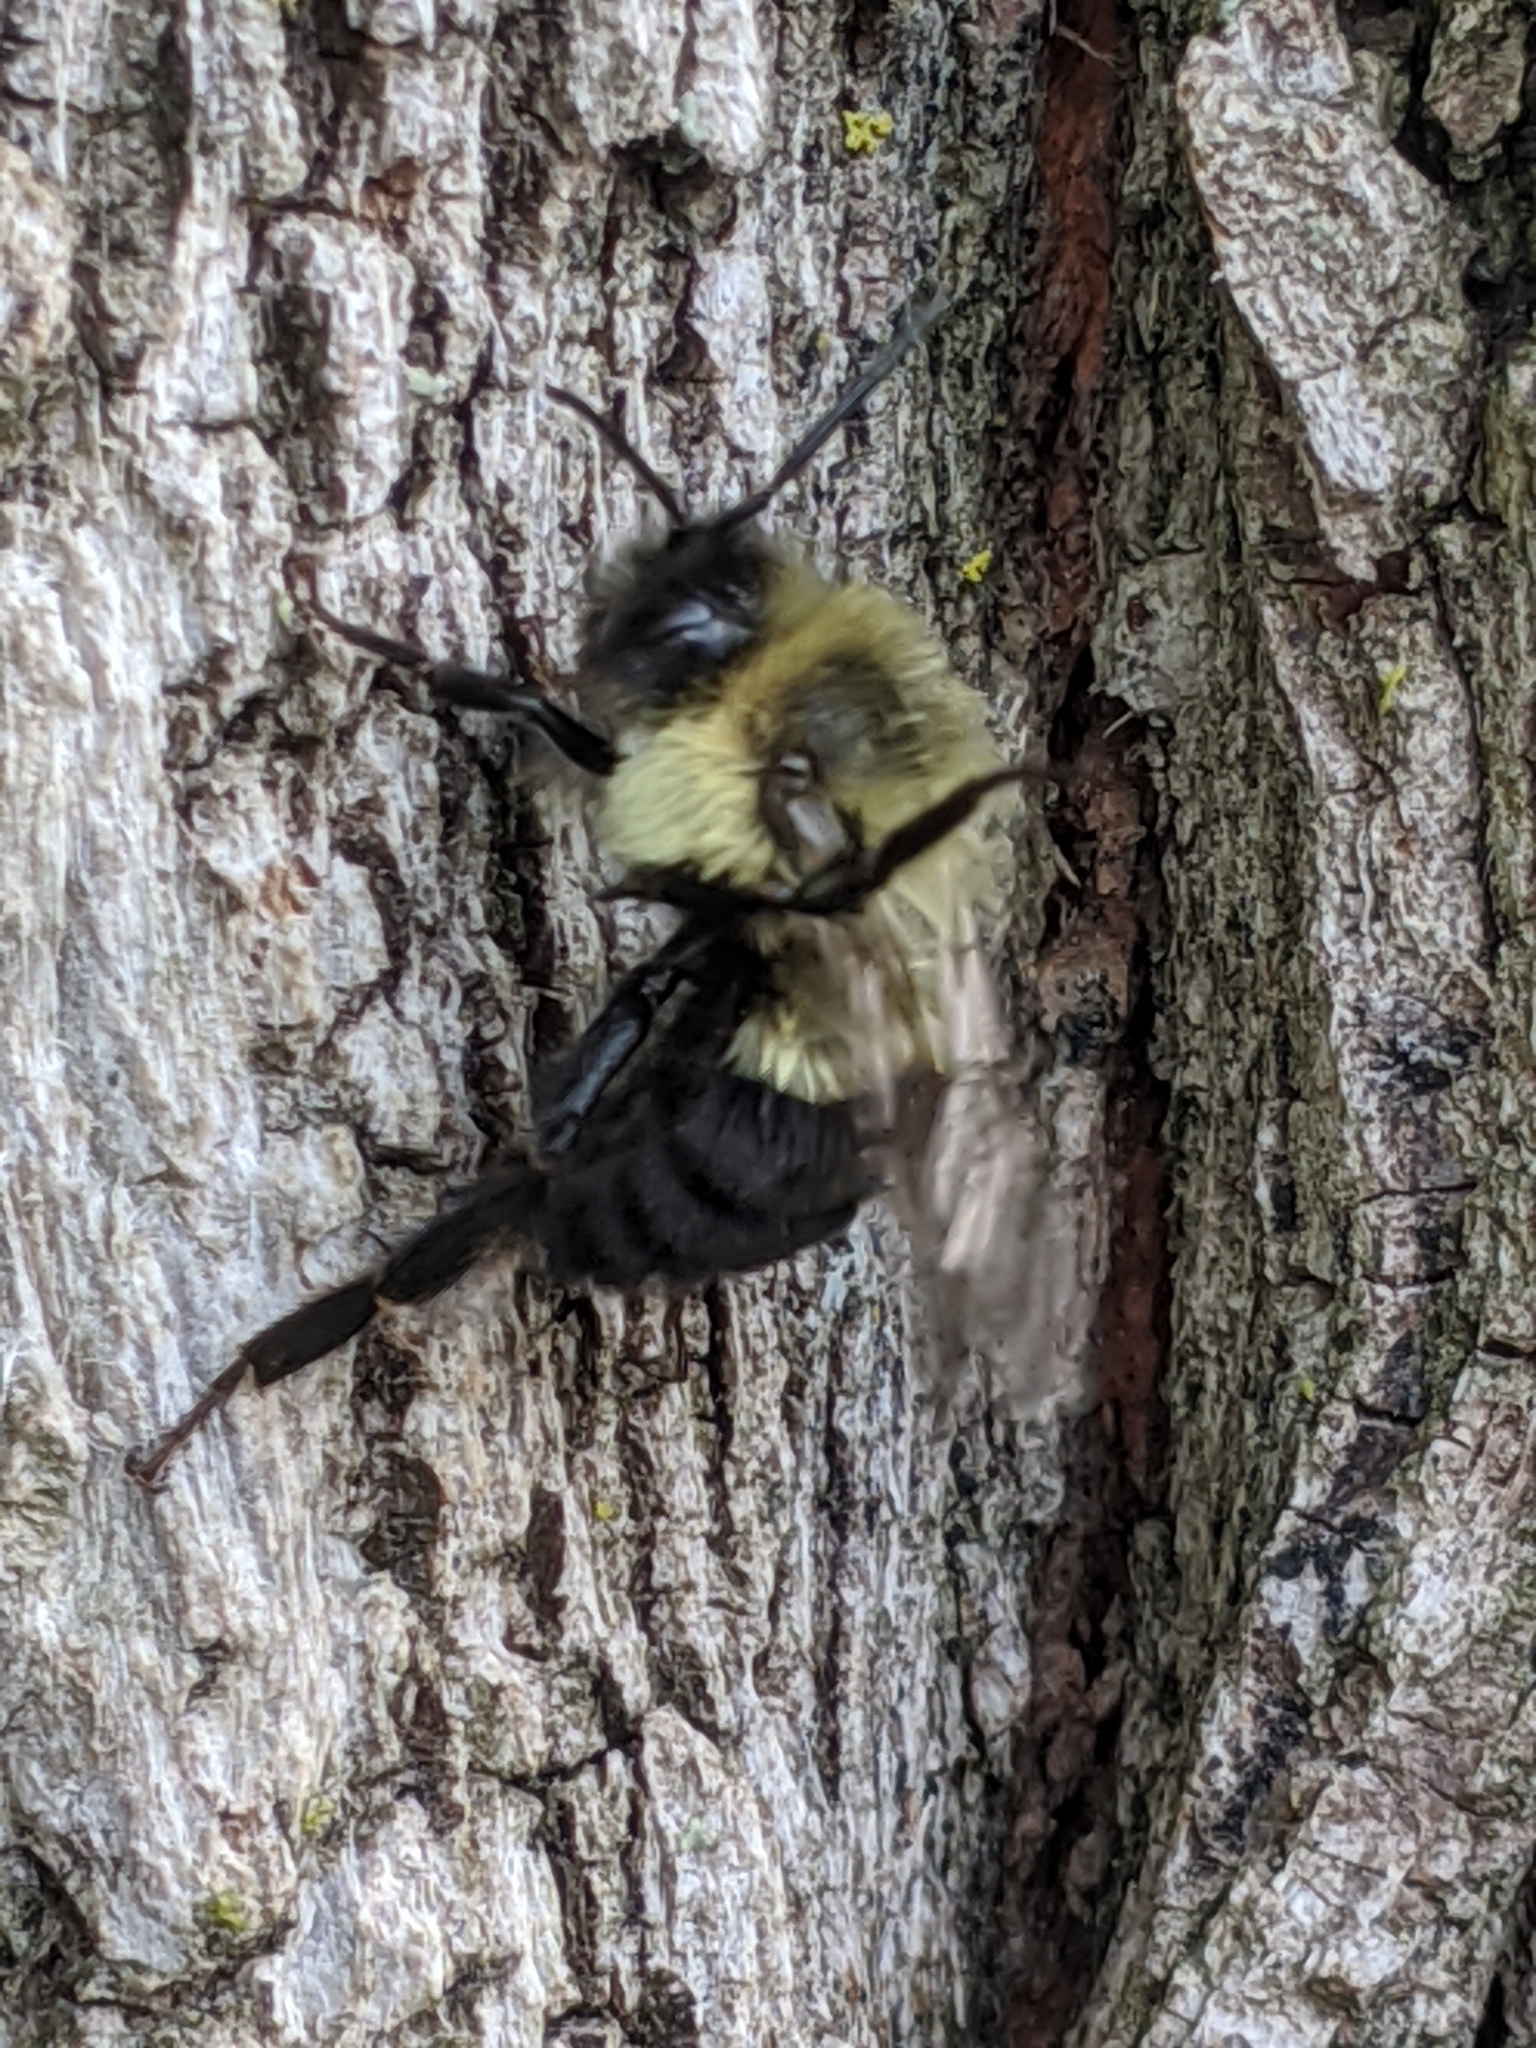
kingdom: Animalia
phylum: Arthropoda
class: Insecta
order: Hymenoptera
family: Apidae
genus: Bombus
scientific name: Bombus impatiens
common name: Common eastern bumble bee
